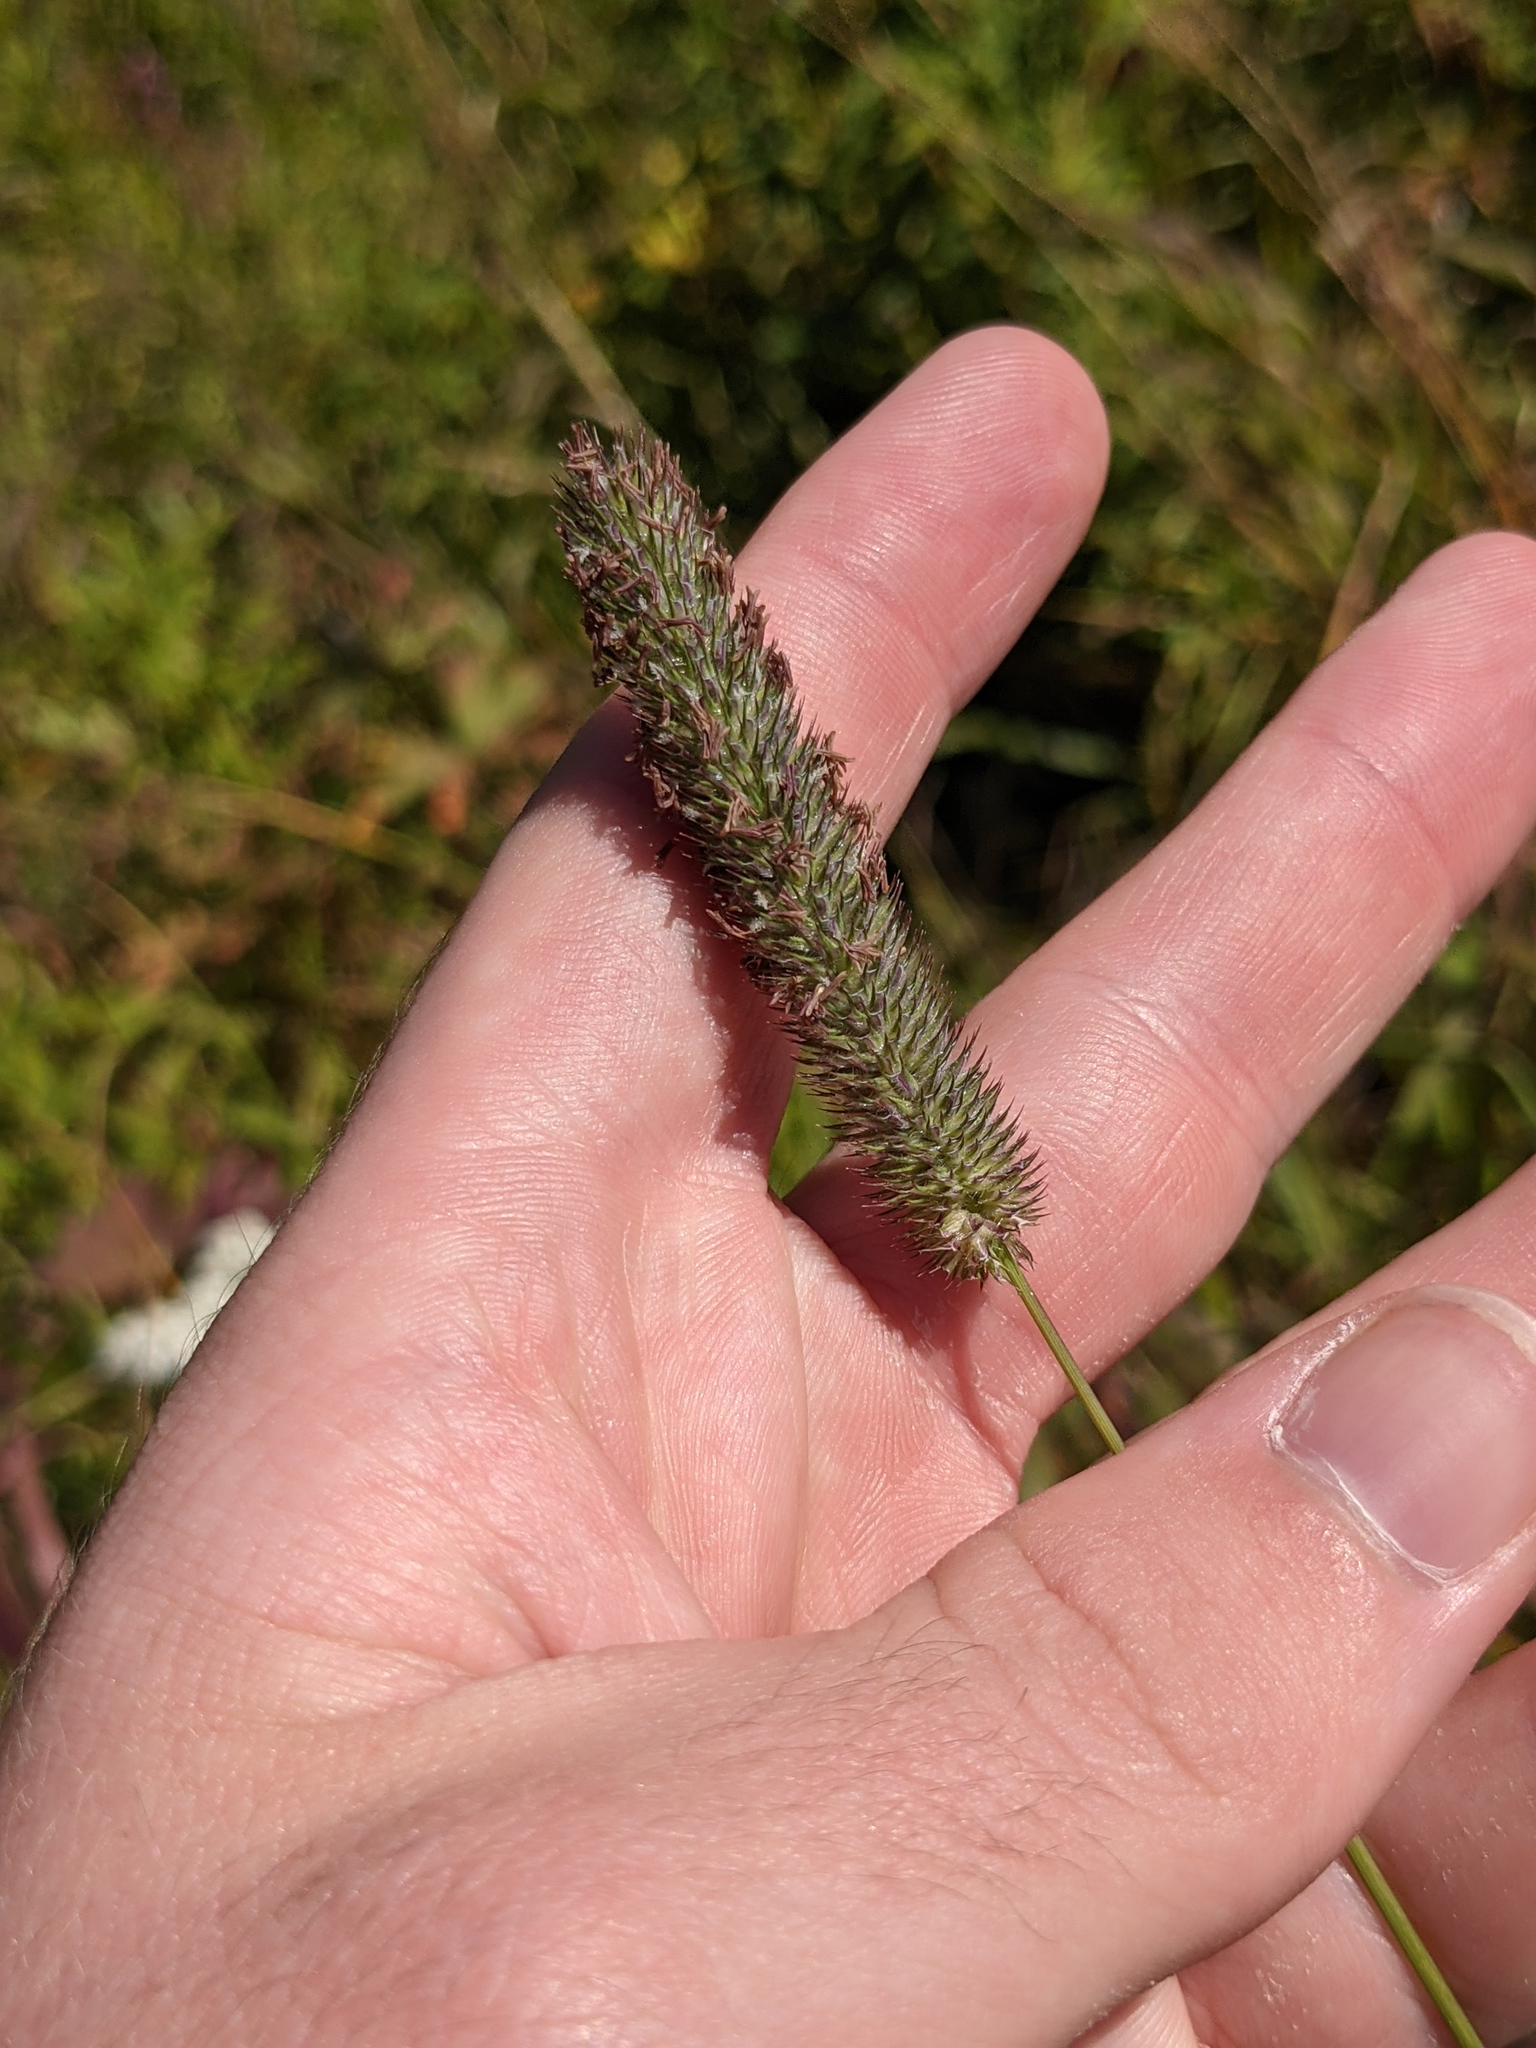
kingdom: Plantae
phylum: Tracheophyta
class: Liliopsida
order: Poales
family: Poaceae
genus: Phleum
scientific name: Phleum pratense
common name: Timothy grass
